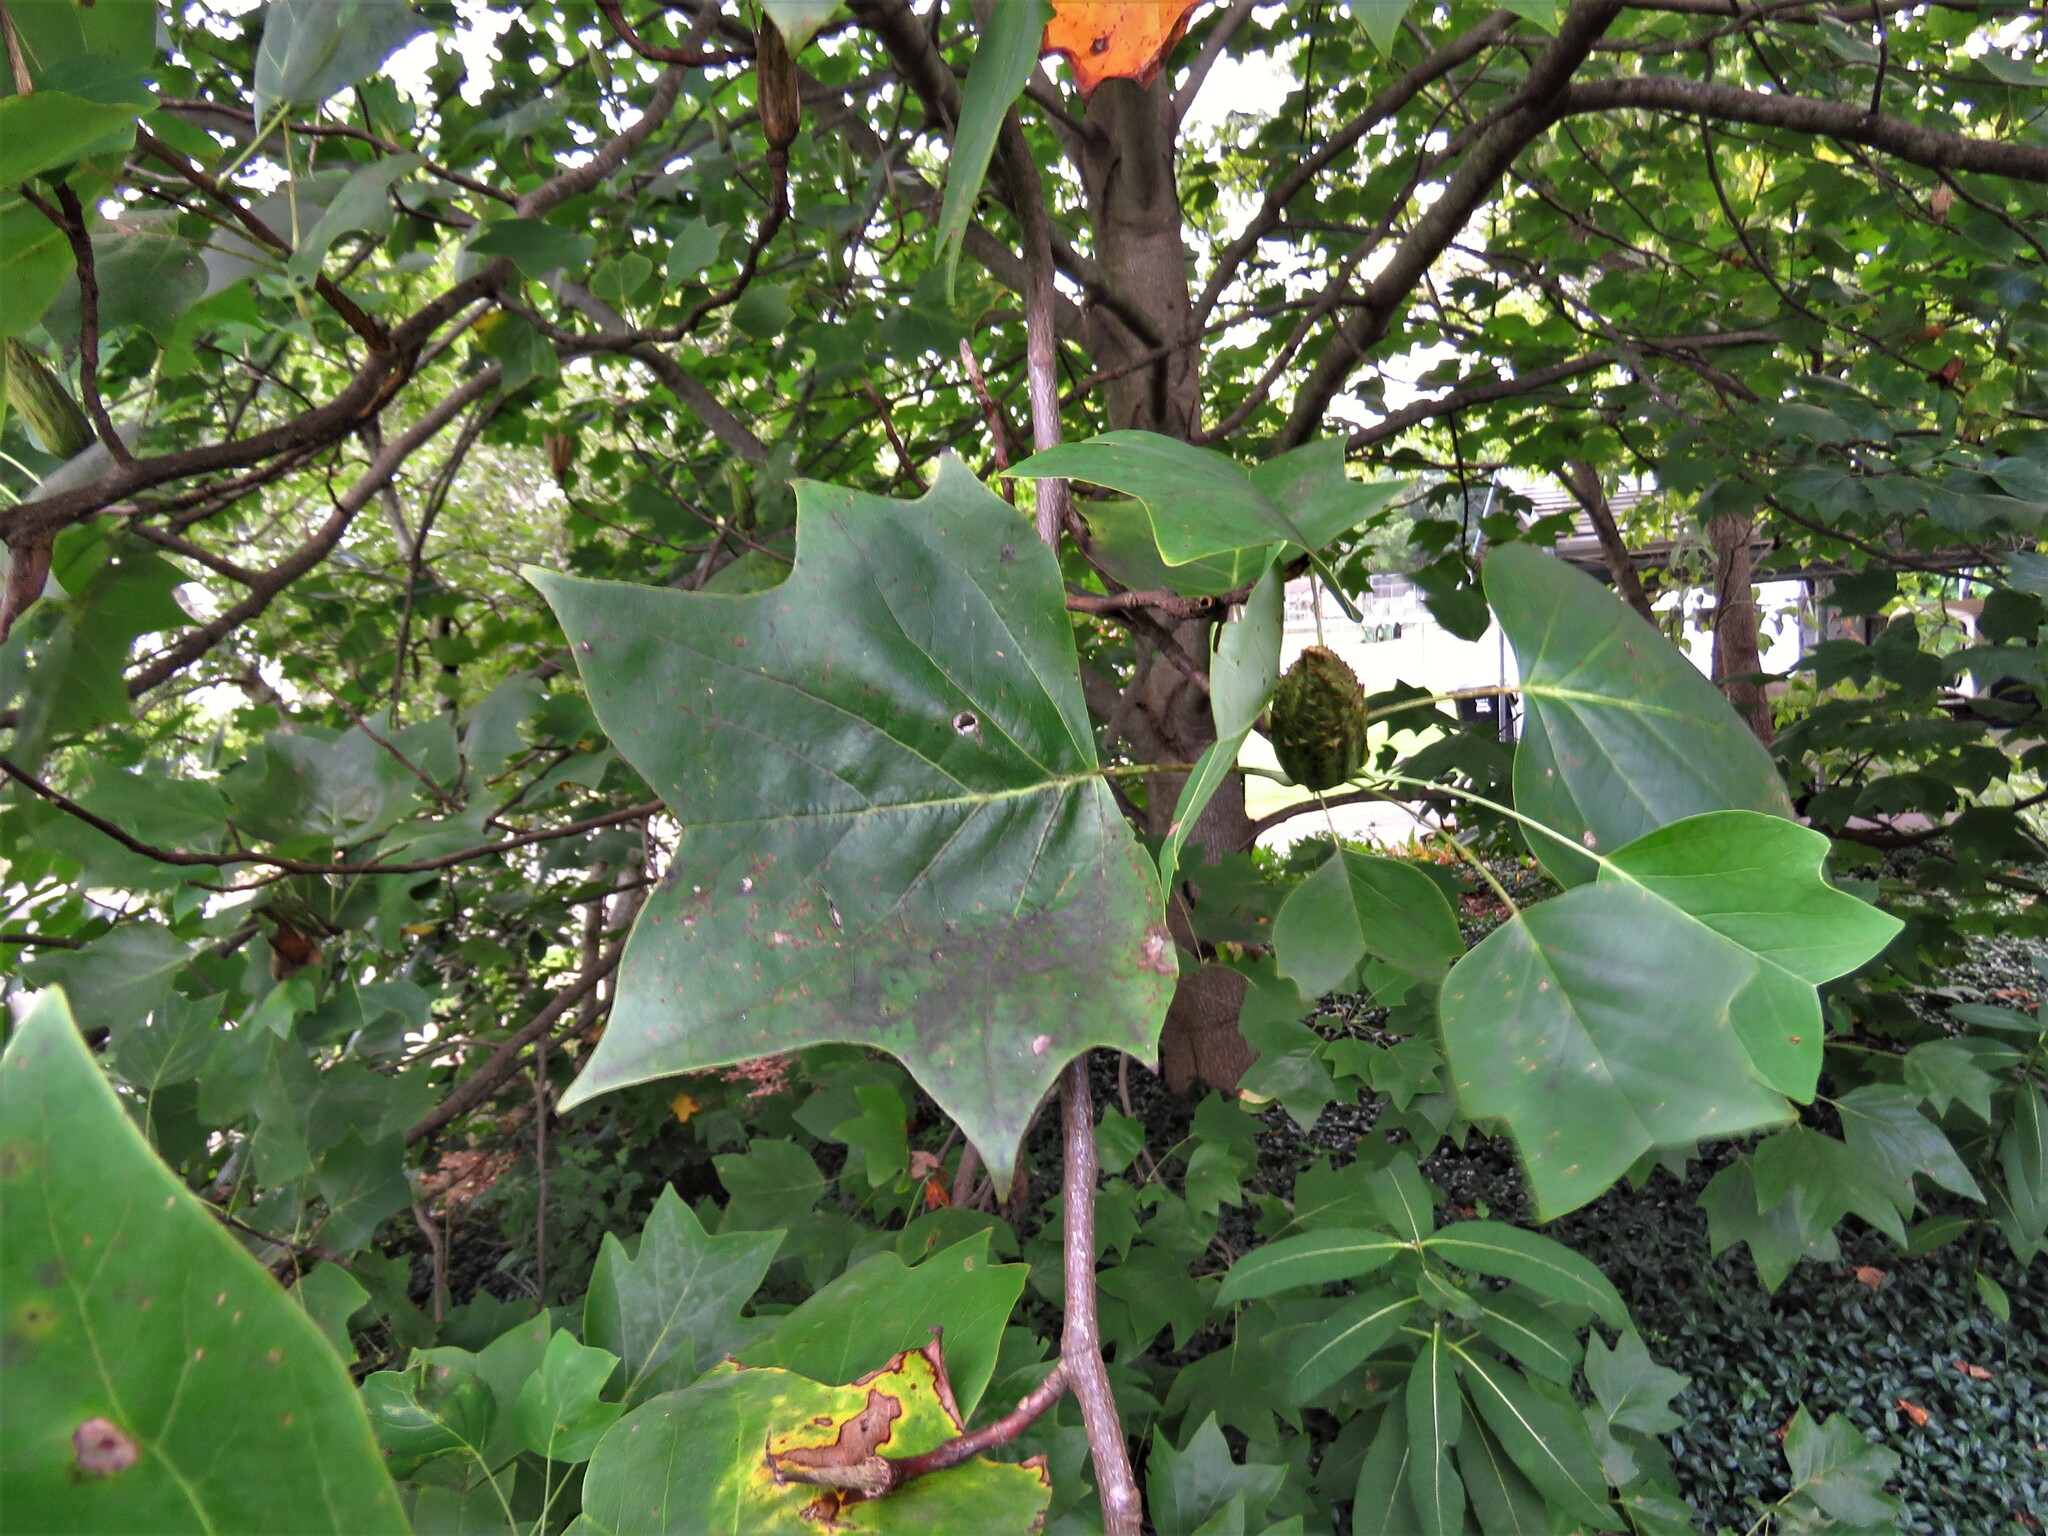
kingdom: Plantae
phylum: Tracheophyta
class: Magnoliopsida
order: Magnoliales
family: Magnoliaceae
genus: Liriodendron
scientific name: Liriodendron tulipifera
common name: Tulip tree
